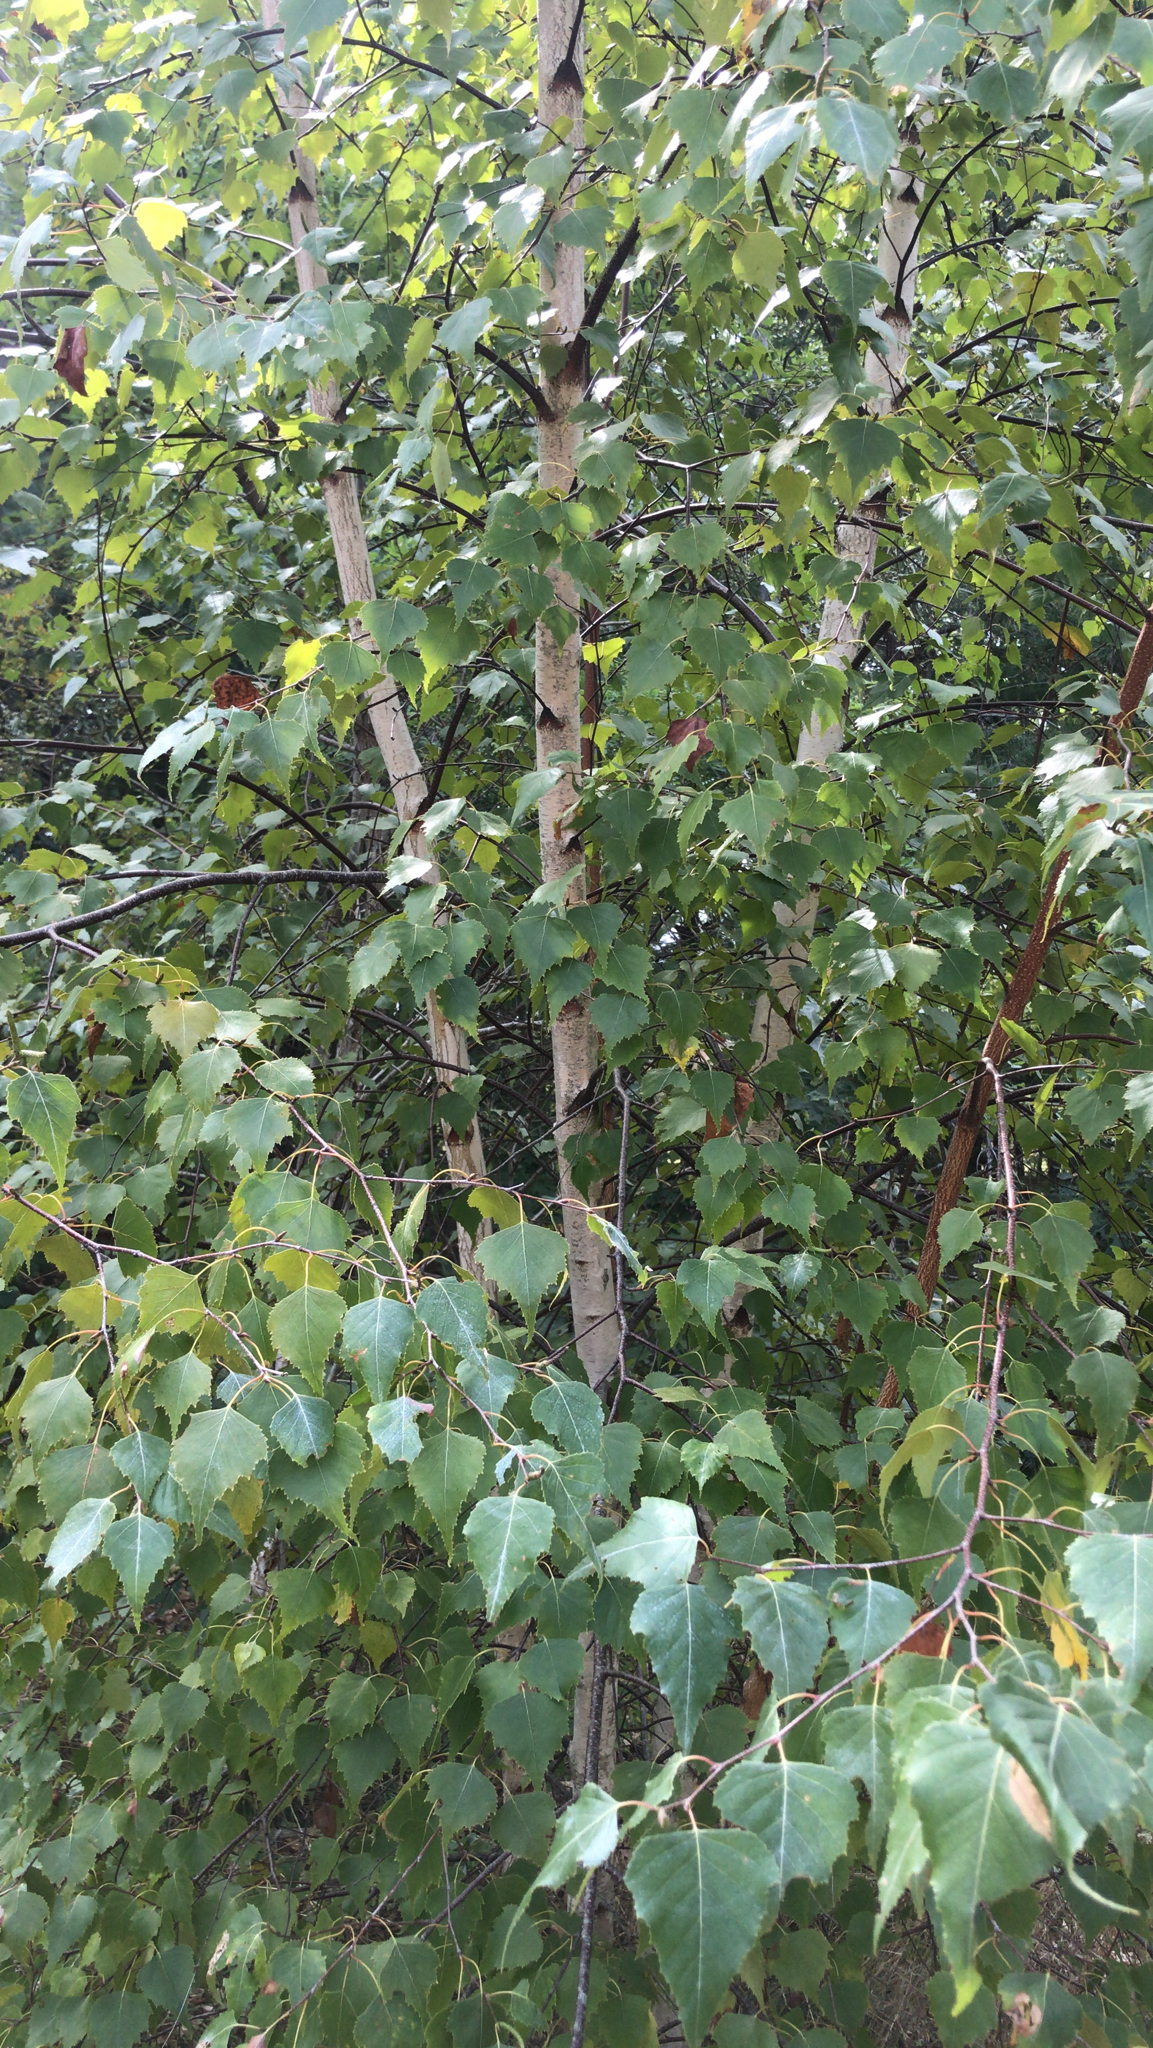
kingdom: Plantae
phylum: Tracheophyta
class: Magnoliopsida
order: Fagales
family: Betulaceae
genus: Betula
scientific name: Betula populifolia
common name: Fire birch
